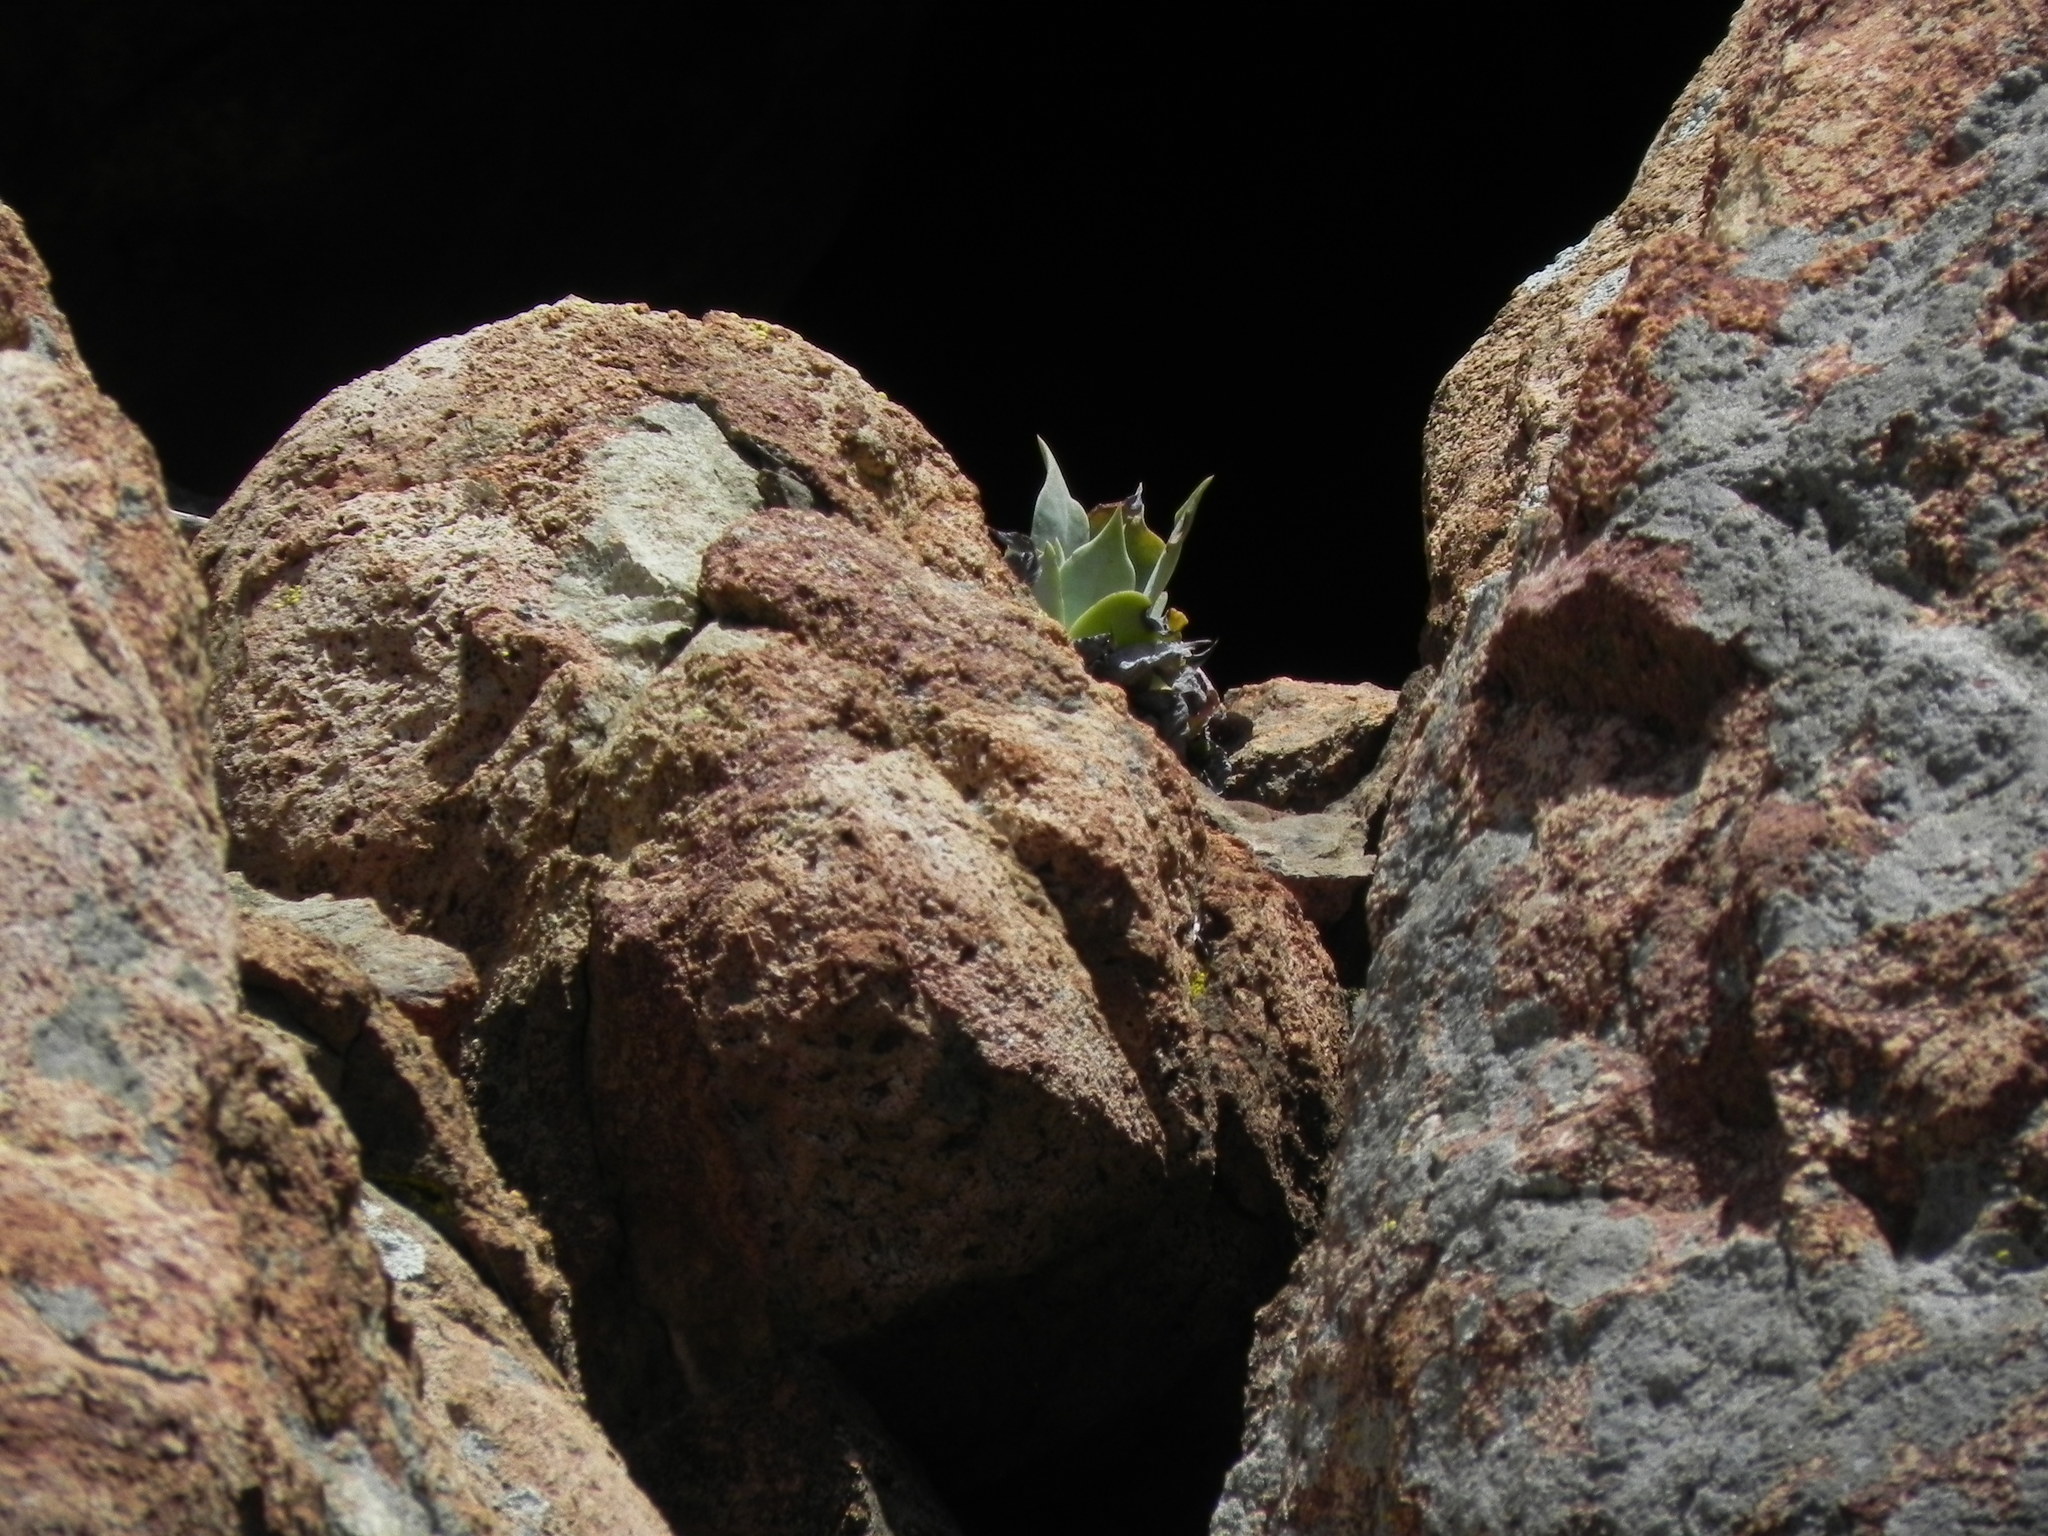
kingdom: Plantae
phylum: Tracheophyta
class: Magnoliopsida
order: Saxifragales
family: Crassulaceae
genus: Dudleya
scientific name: Dudleya pulverulenta
